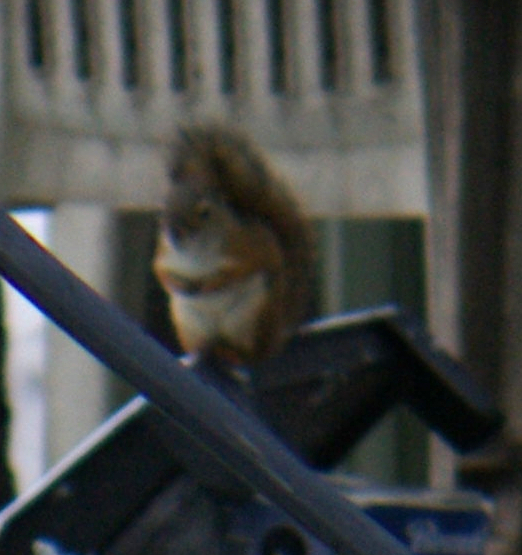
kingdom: Animalia
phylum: Chordata
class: Mammalia
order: Rodentia
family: Sciuridae
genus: Tamiasciurus
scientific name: Tamiasciurus hudsonicus
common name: Red squirrel
